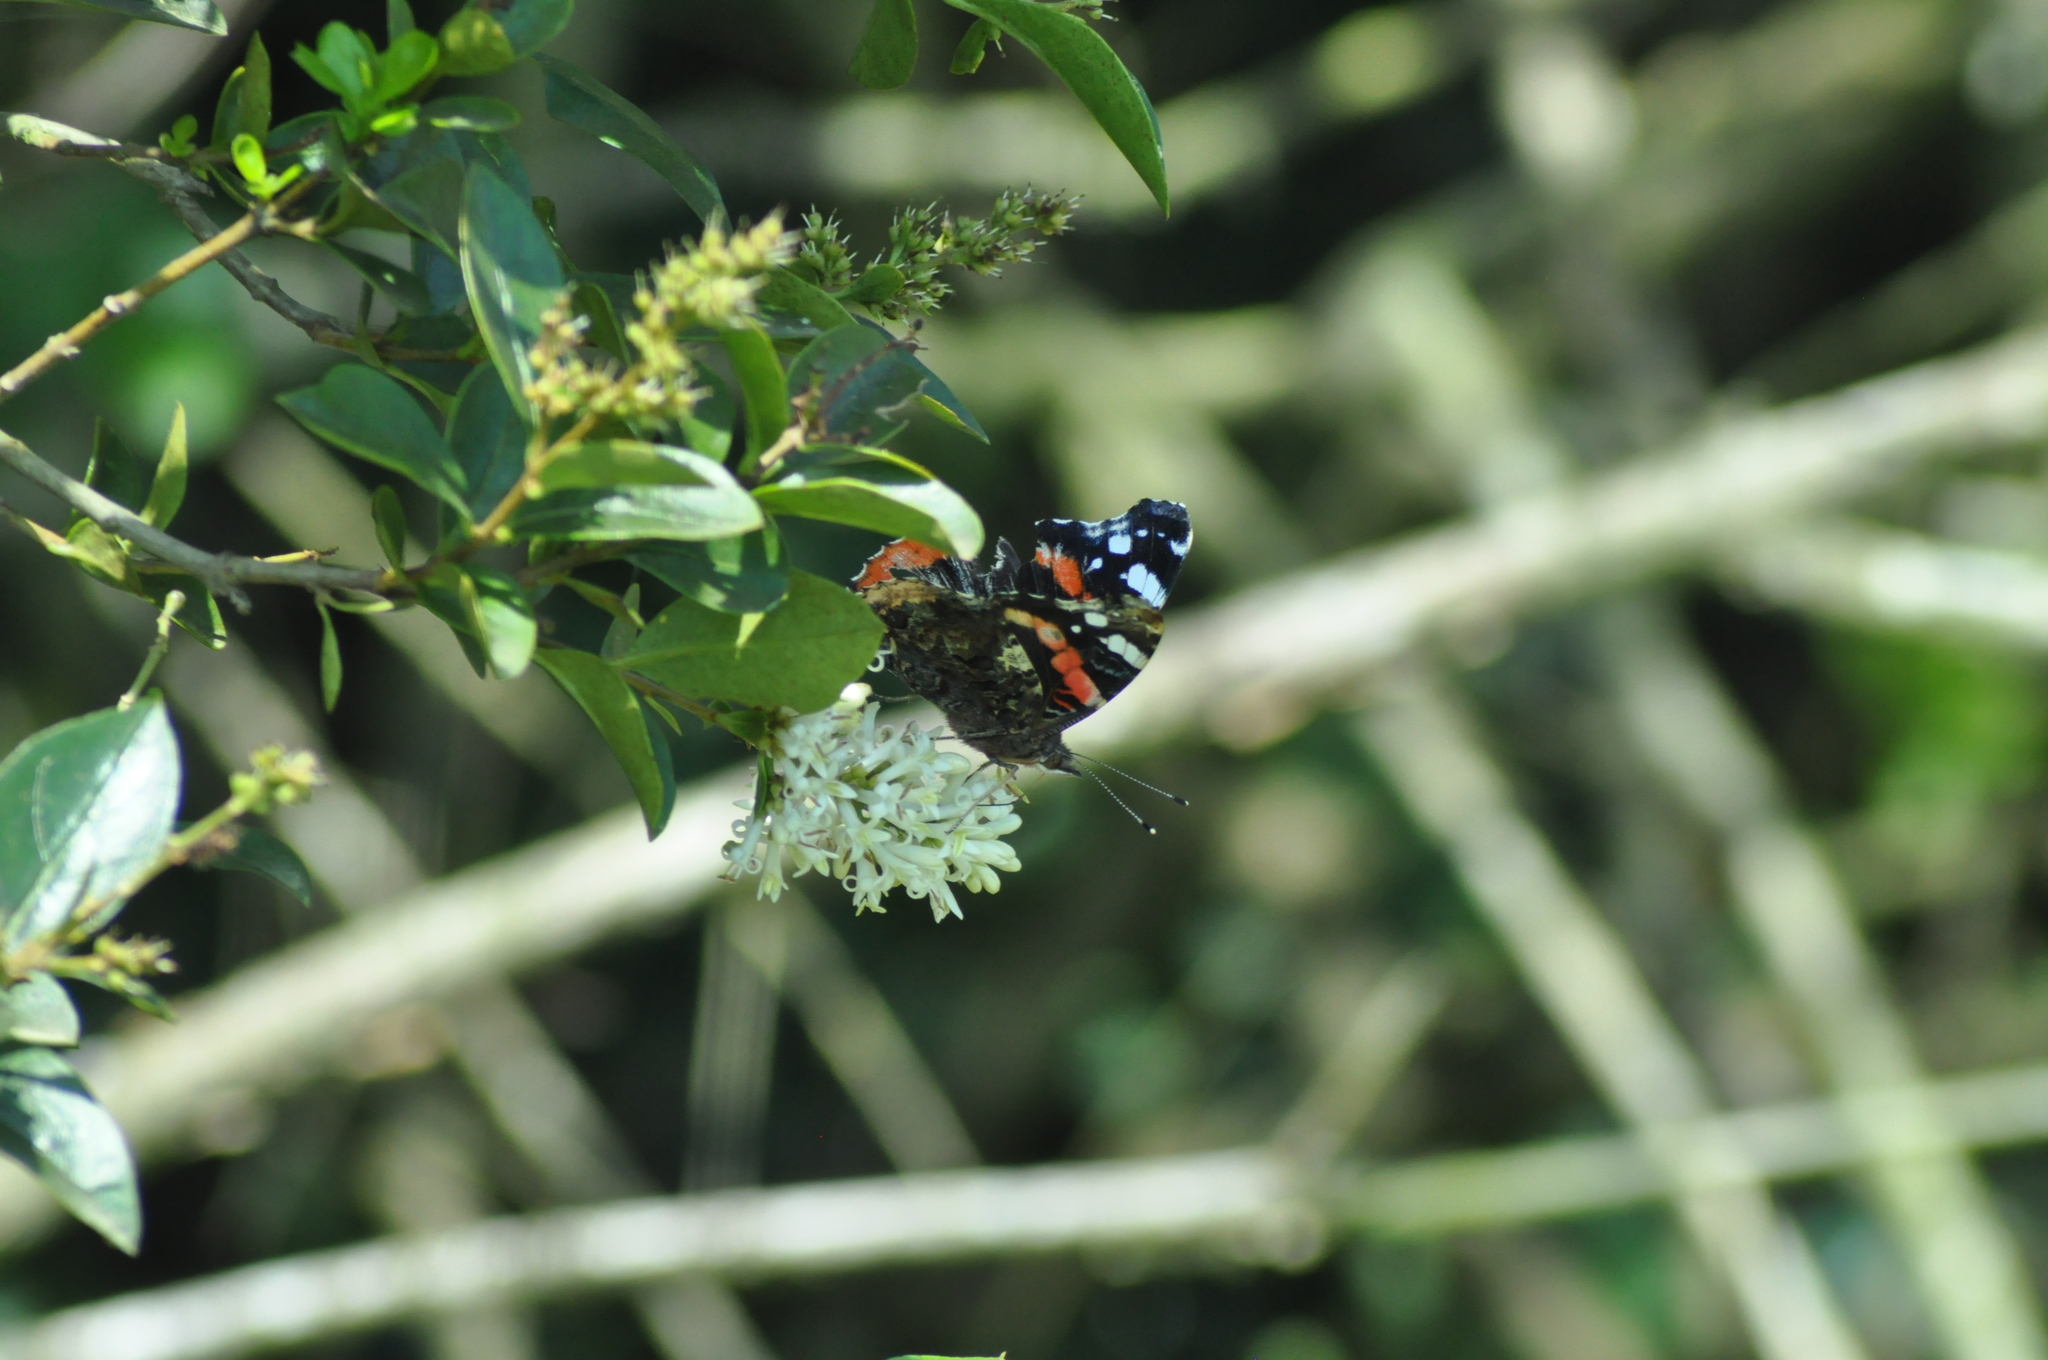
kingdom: Animalia
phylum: Arthropoda
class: Insecta
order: Lepidoptera
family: Nymphalidae
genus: Vanessa
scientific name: Vanessa atalanta
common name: Red admiral
